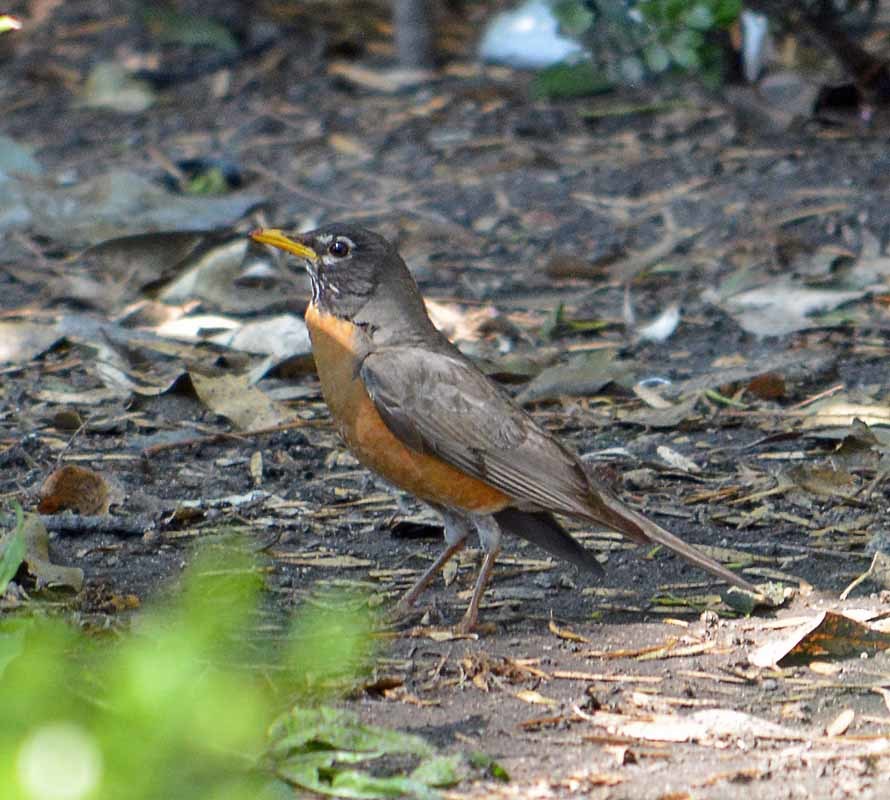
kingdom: Animalia
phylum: Chordata
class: Aves
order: Passeriformes
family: Turdidae
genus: Turdus
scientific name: Turdus migratorius
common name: American robin
